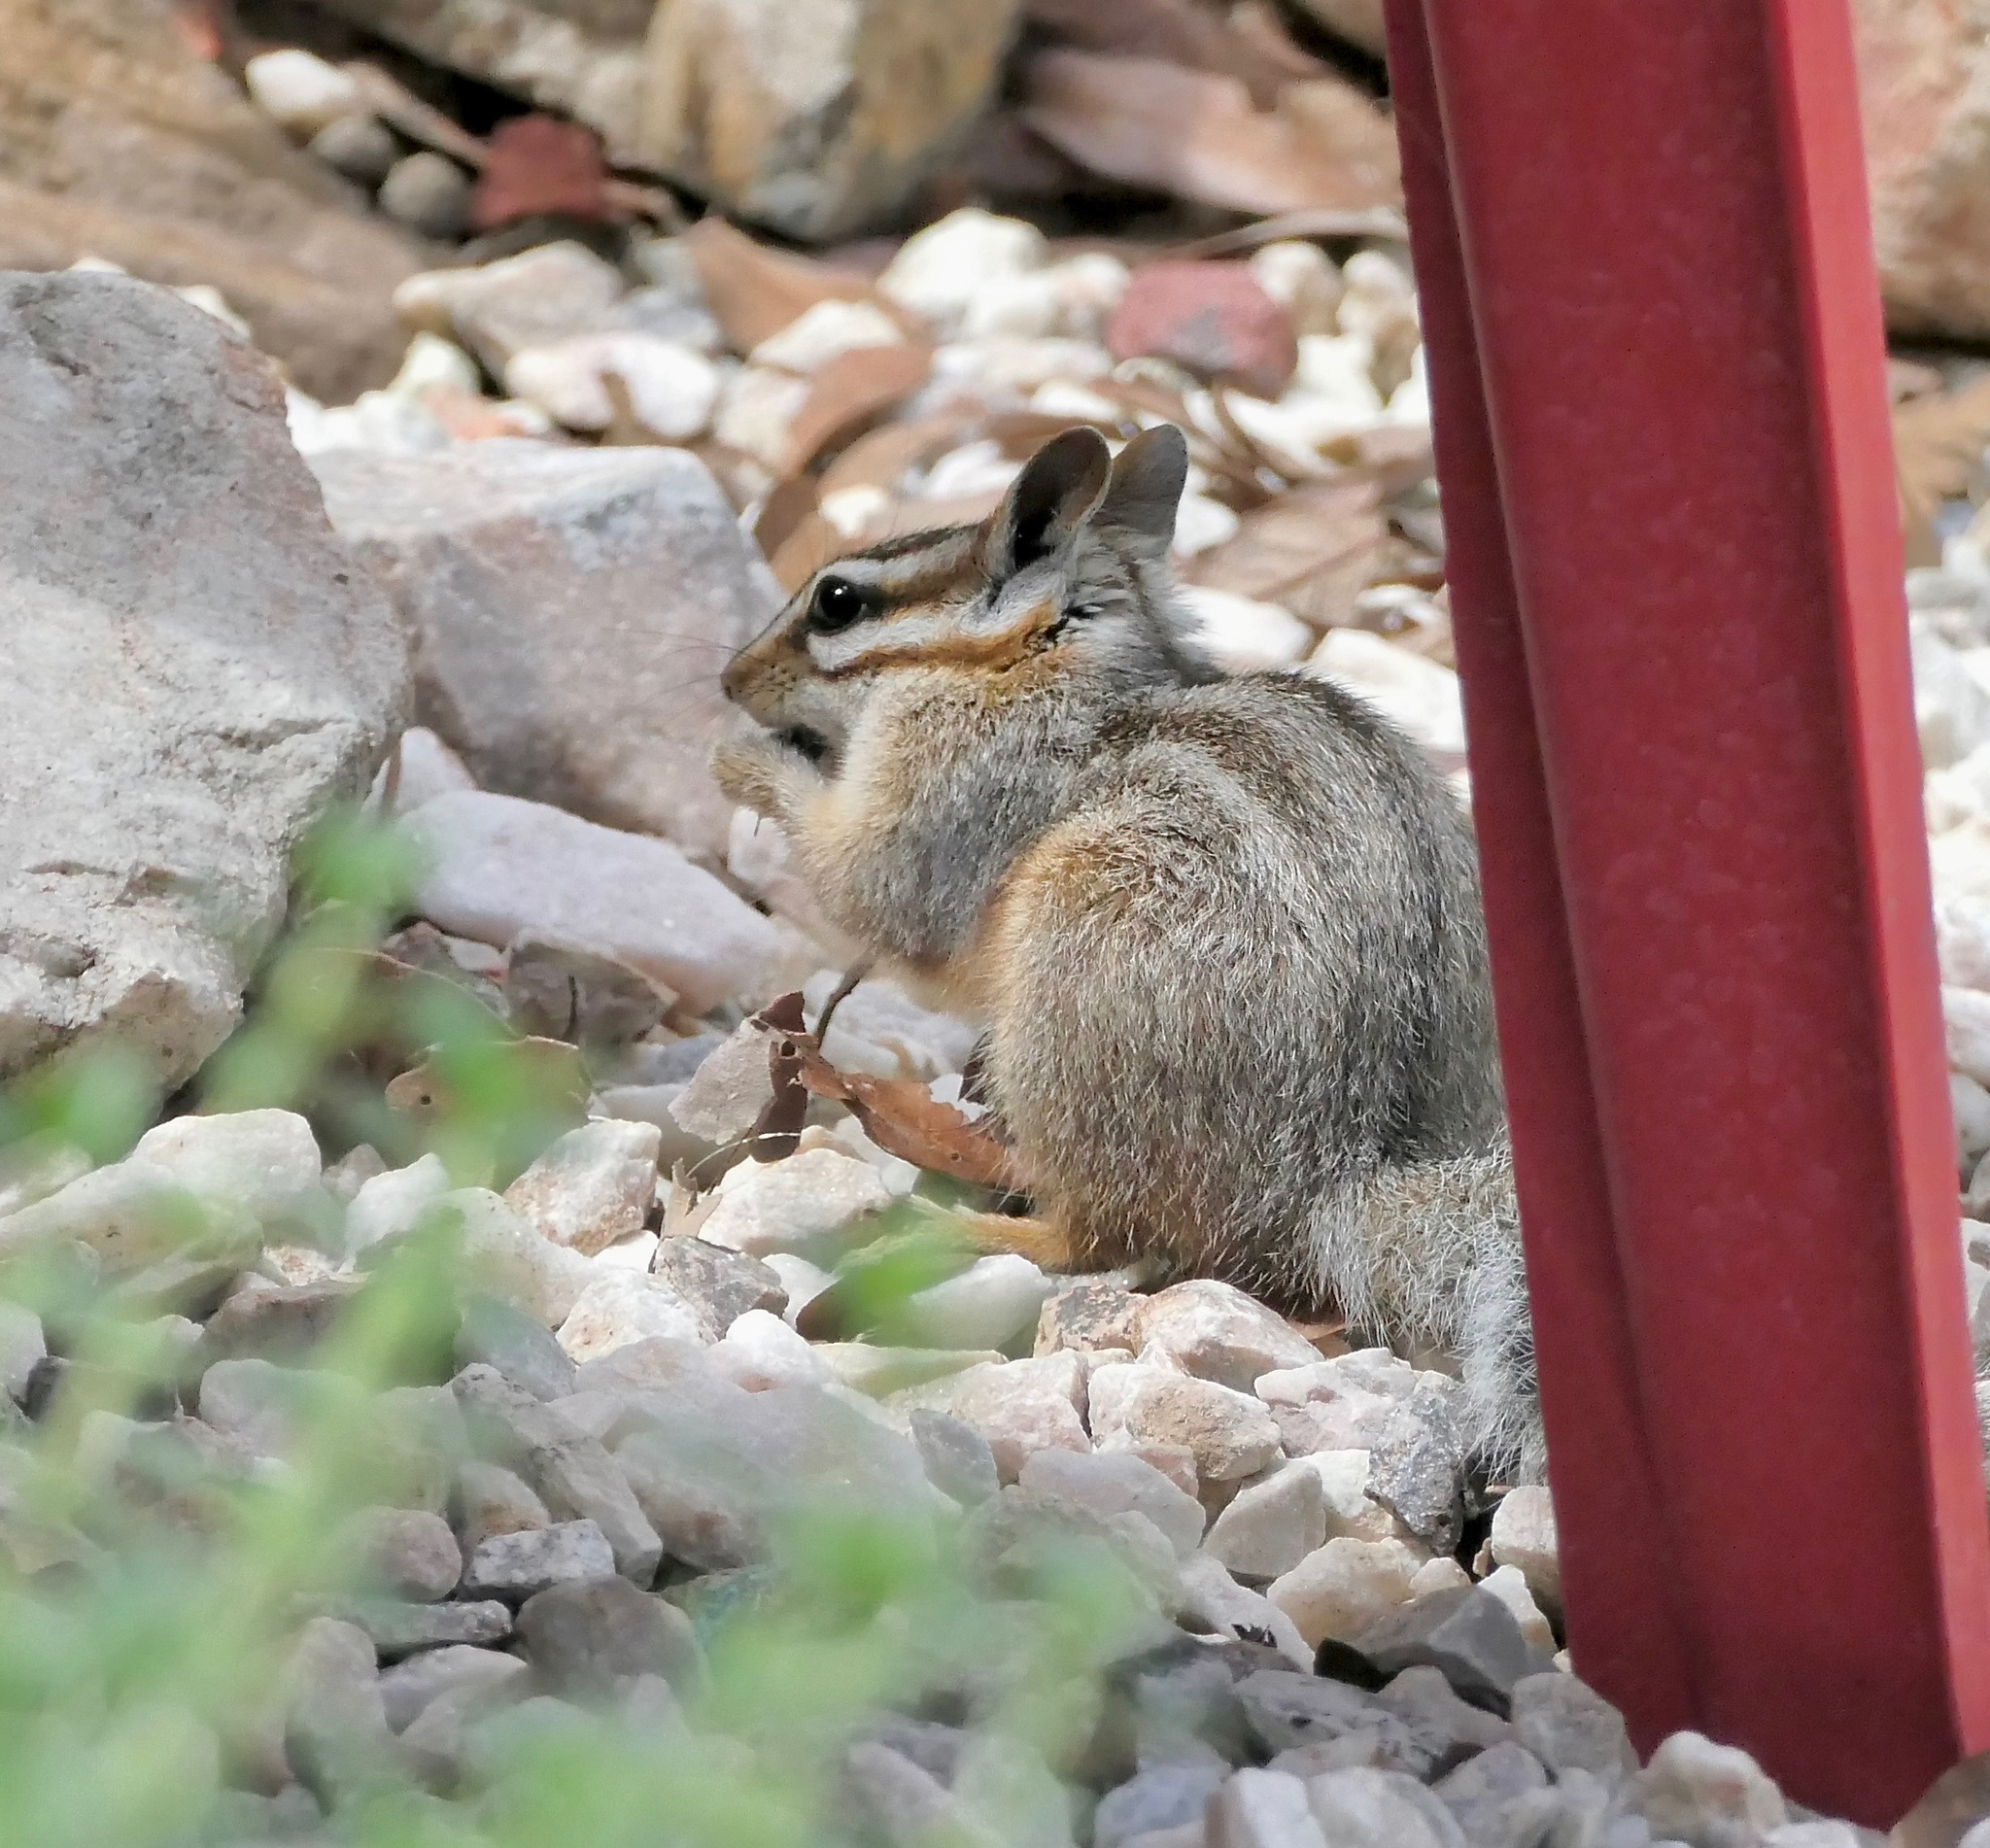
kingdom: Animalia
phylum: Chordata
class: Mammalia
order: Rodentia
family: Sciuridae
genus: Tamias
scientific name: Tamias dorsalis
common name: Cliff chipmunk
